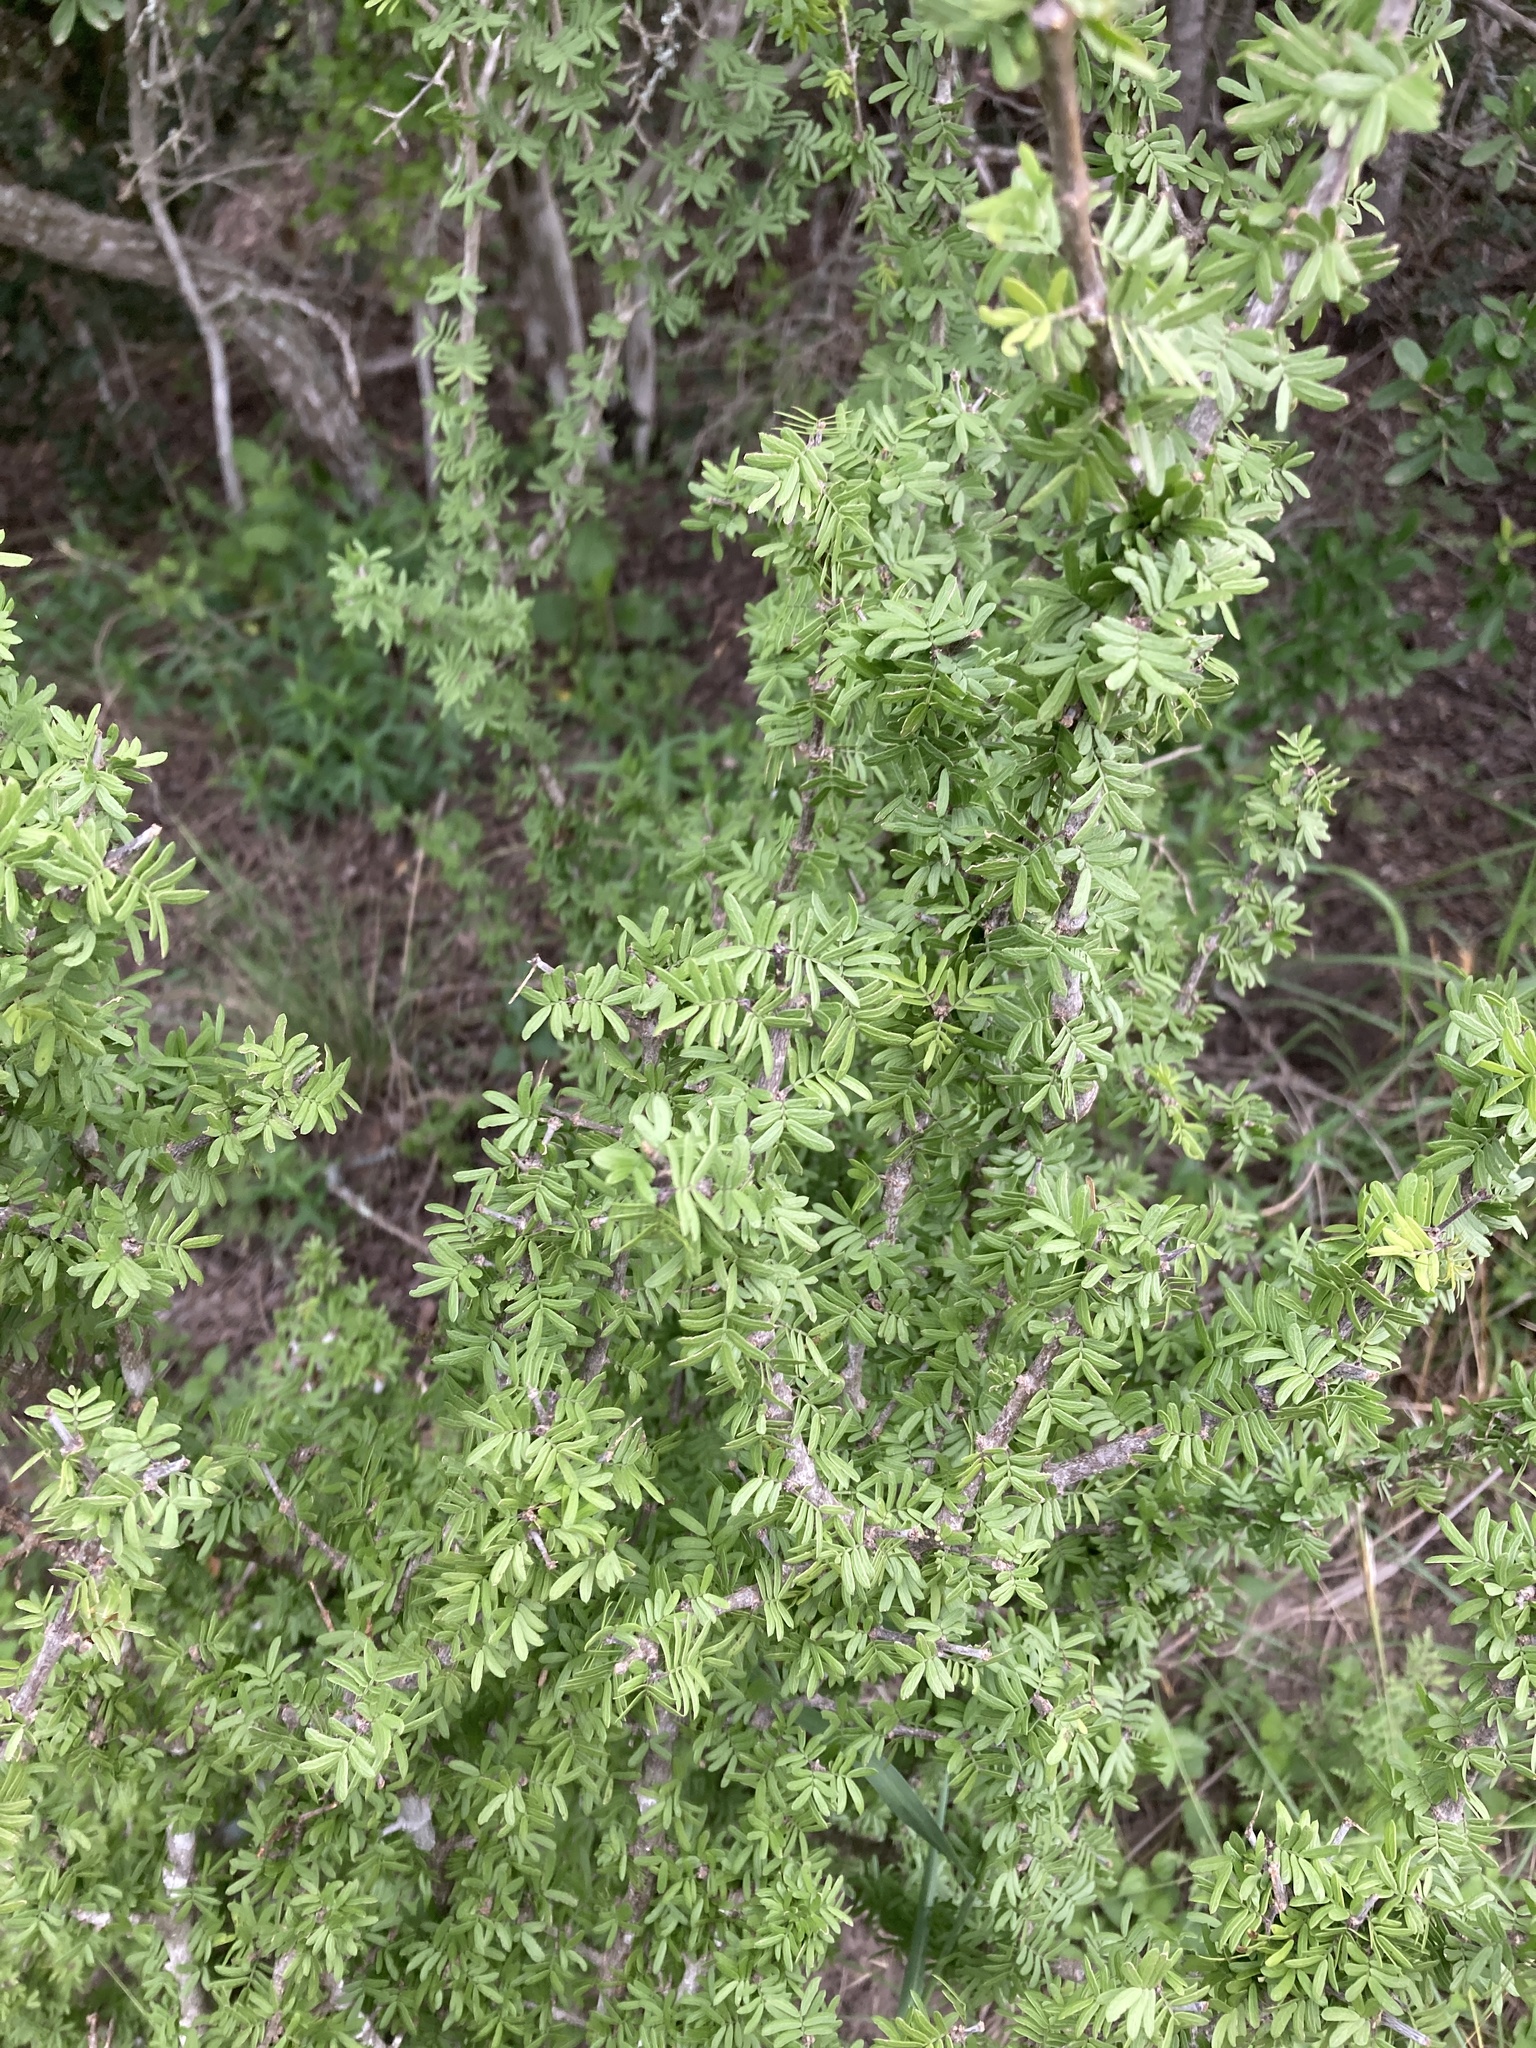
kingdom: Plantae
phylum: Tracheophyta
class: Magnoliopsida
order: Zygophyllales
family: Zygophyllaceae
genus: Porlieria
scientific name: Porlieria angustifolia
